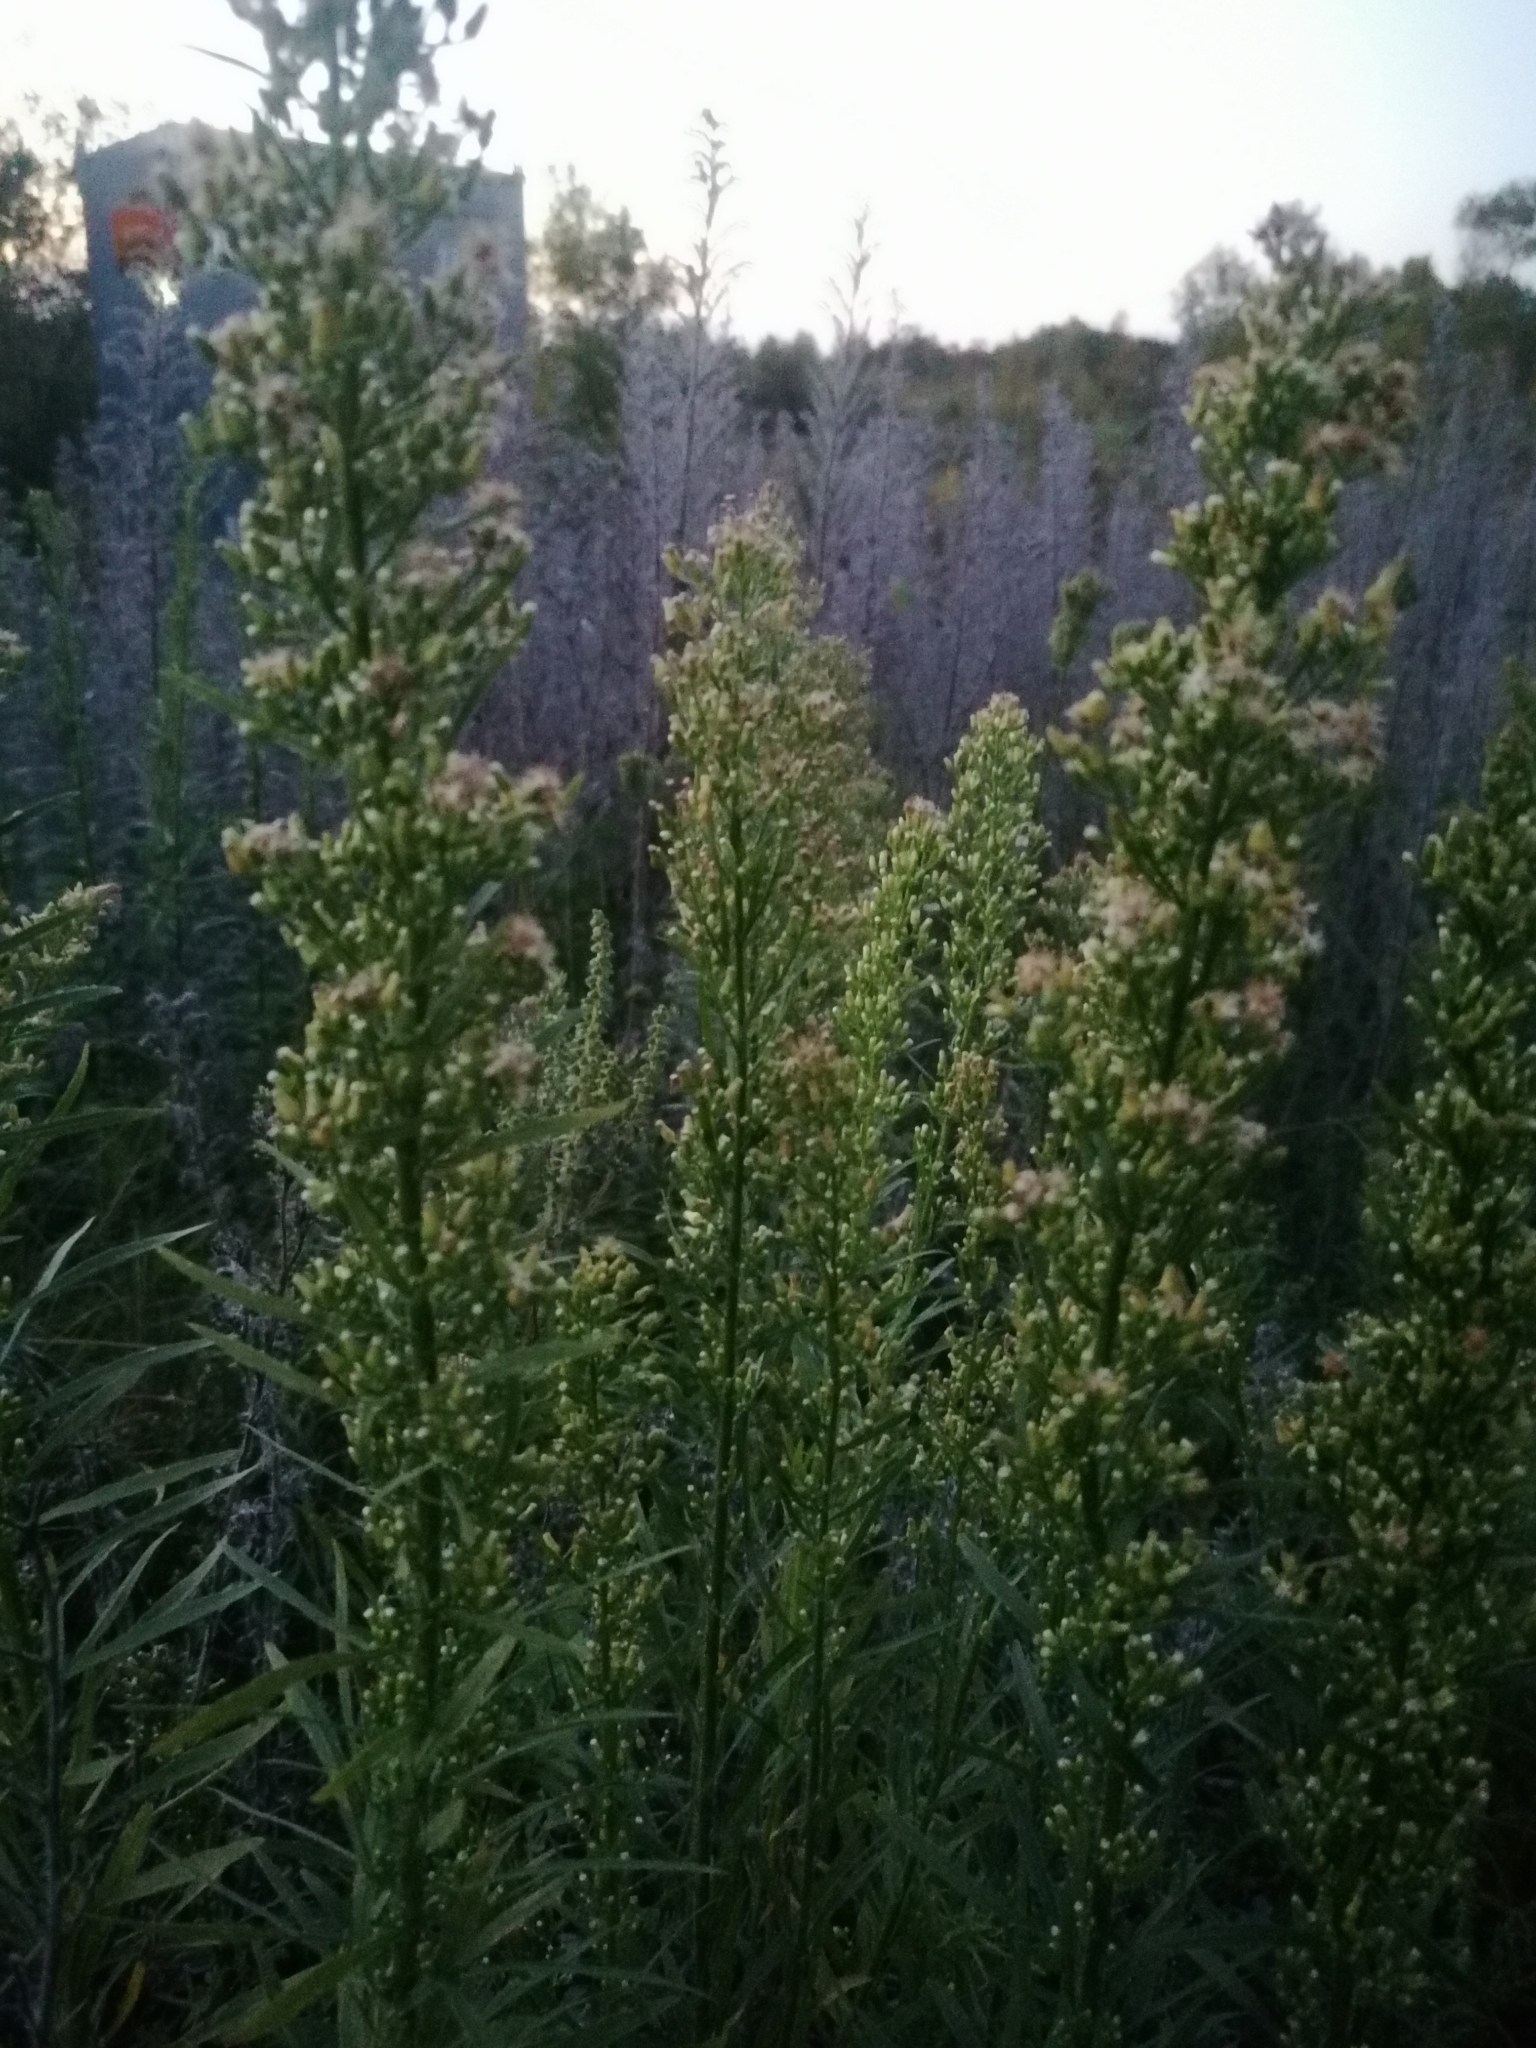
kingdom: Plantae
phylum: Tracheophyta
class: Magnoliopsida
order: Asterales
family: Asteraceae
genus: Erigeron
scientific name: Erigeron canadensis
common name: Canadian fleabane
